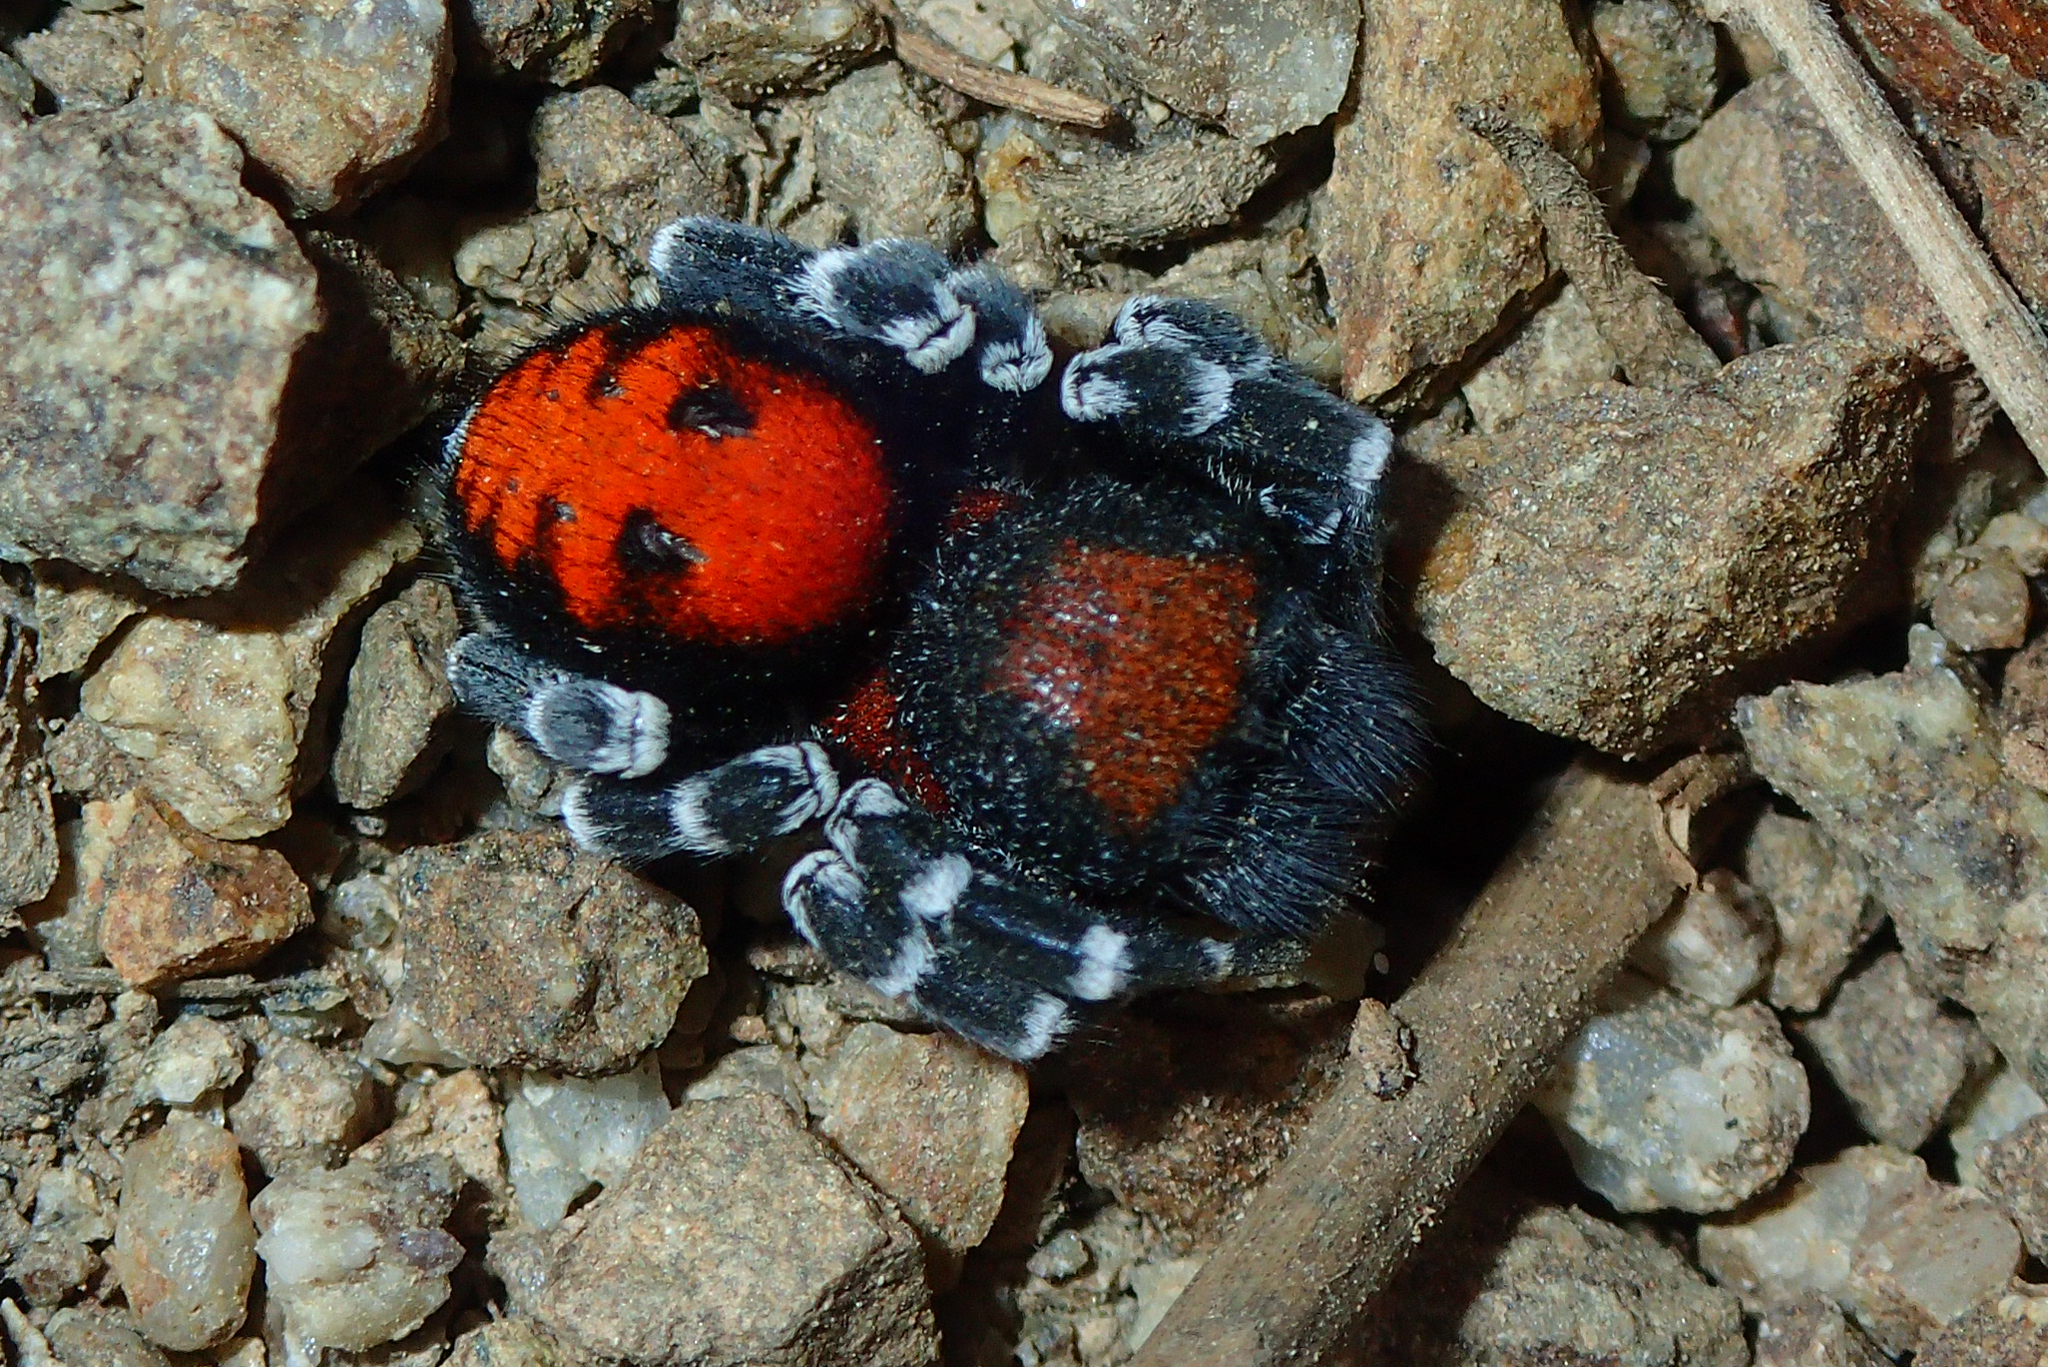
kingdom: Animalia
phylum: Arthropoda
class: Arachnida
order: Araneae
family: Eresidae
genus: Loureedia
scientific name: Loureedia lucasi
